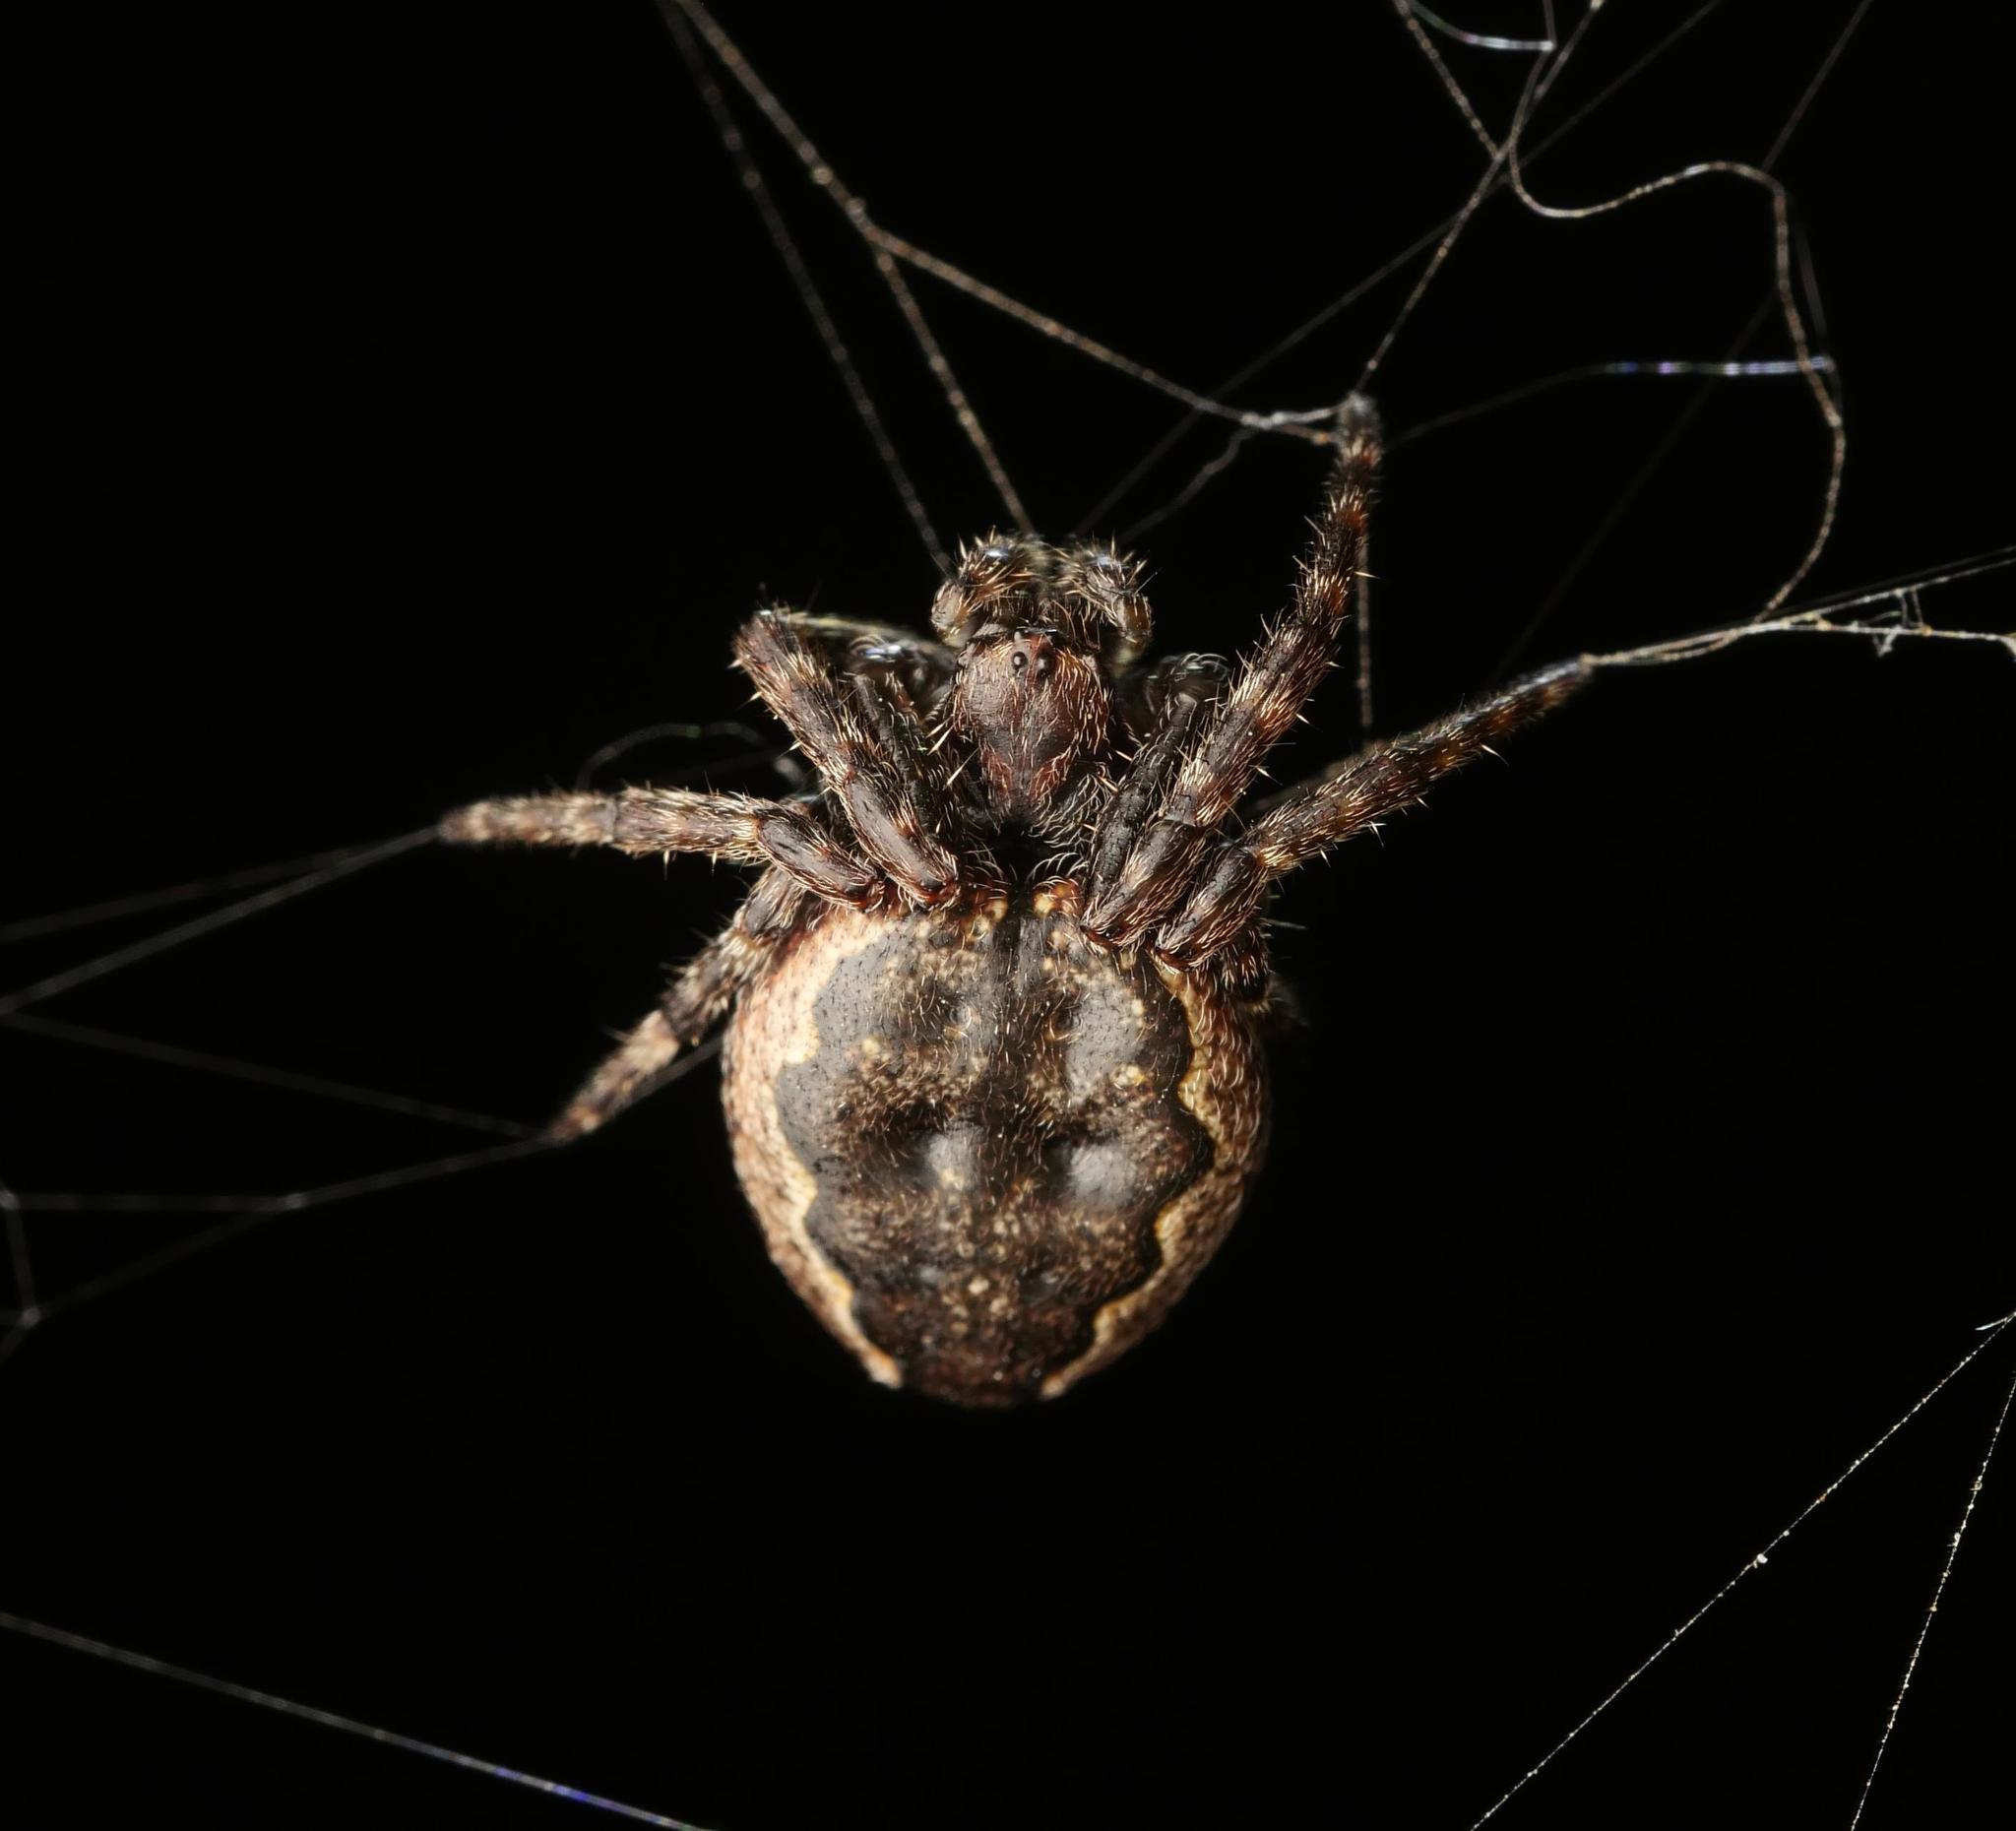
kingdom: Animalia
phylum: Arthropoda
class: Arachnida
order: Araneae
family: Araneidae
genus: Nuctenea
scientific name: Nuctenea umbratica
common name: Toad spider
